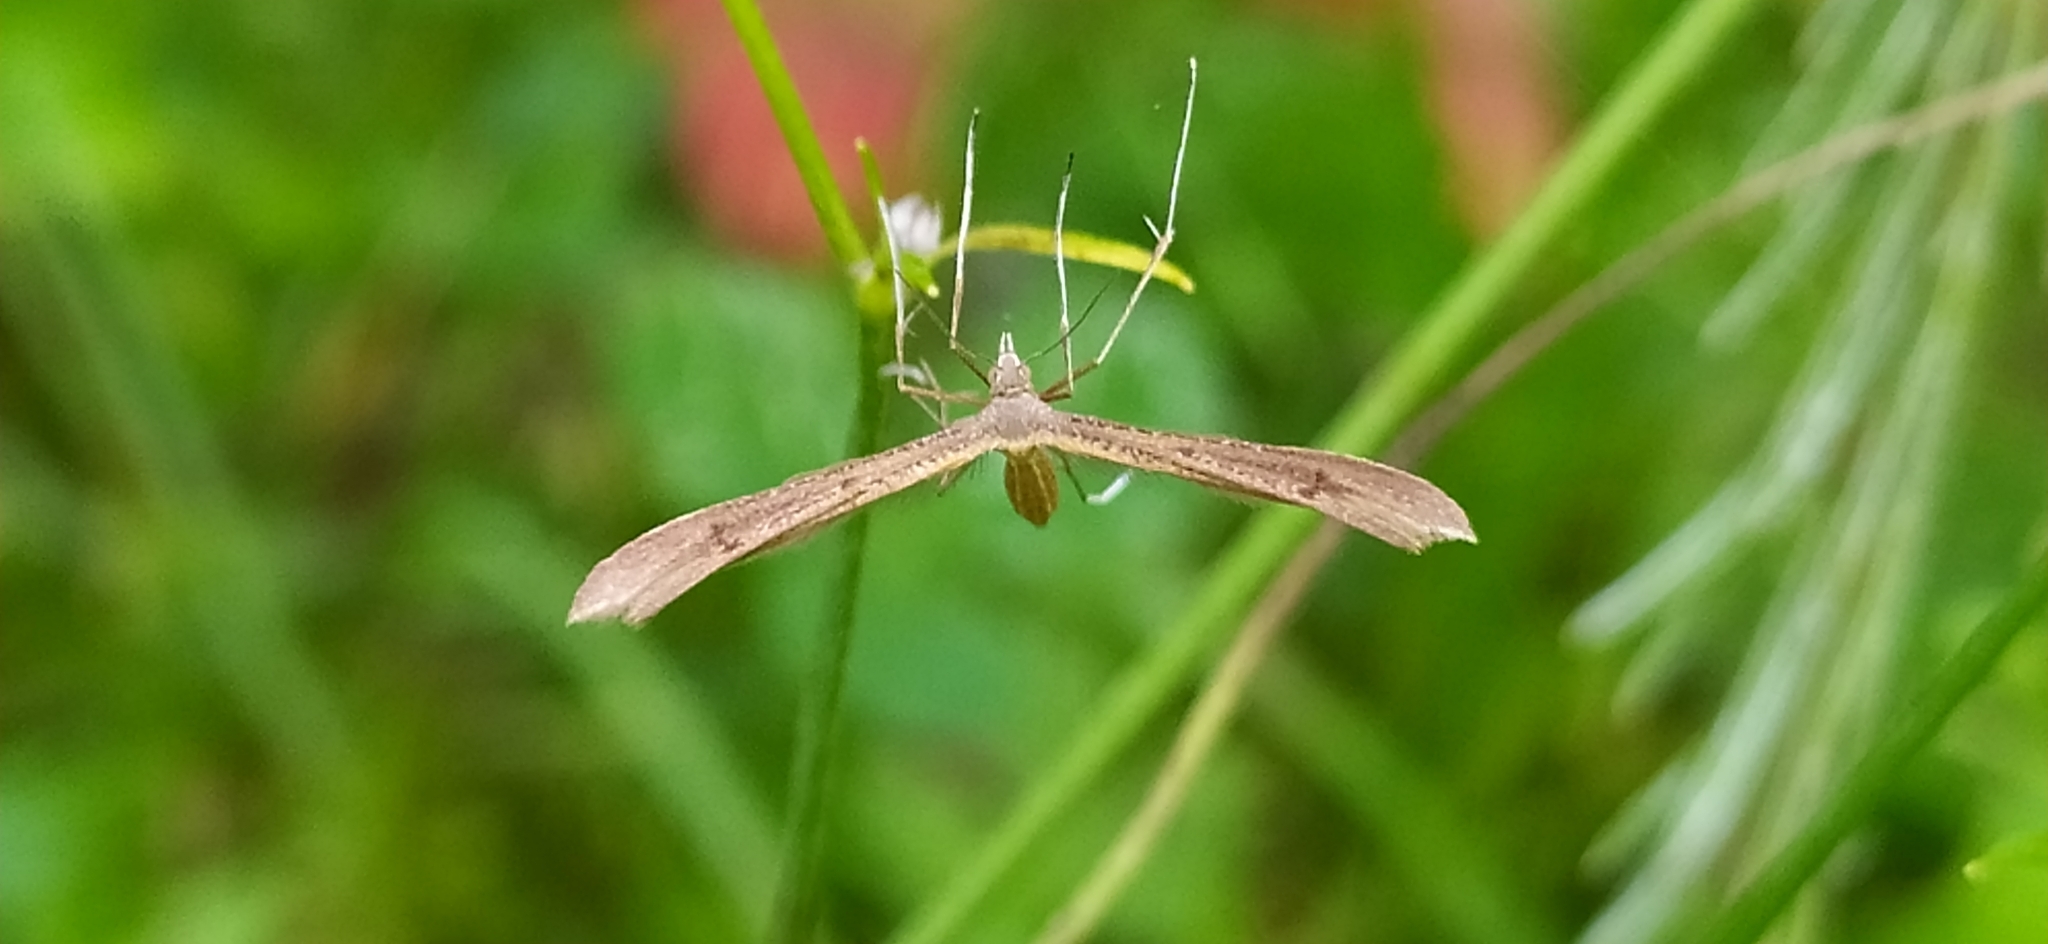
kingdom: Animalia
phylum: Arthropoda
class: Insecta
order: Lepidoptera
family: Pterophoridae
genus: Stenoptilia
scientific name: Stenoptilia pterodactyla
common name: Brown plume
